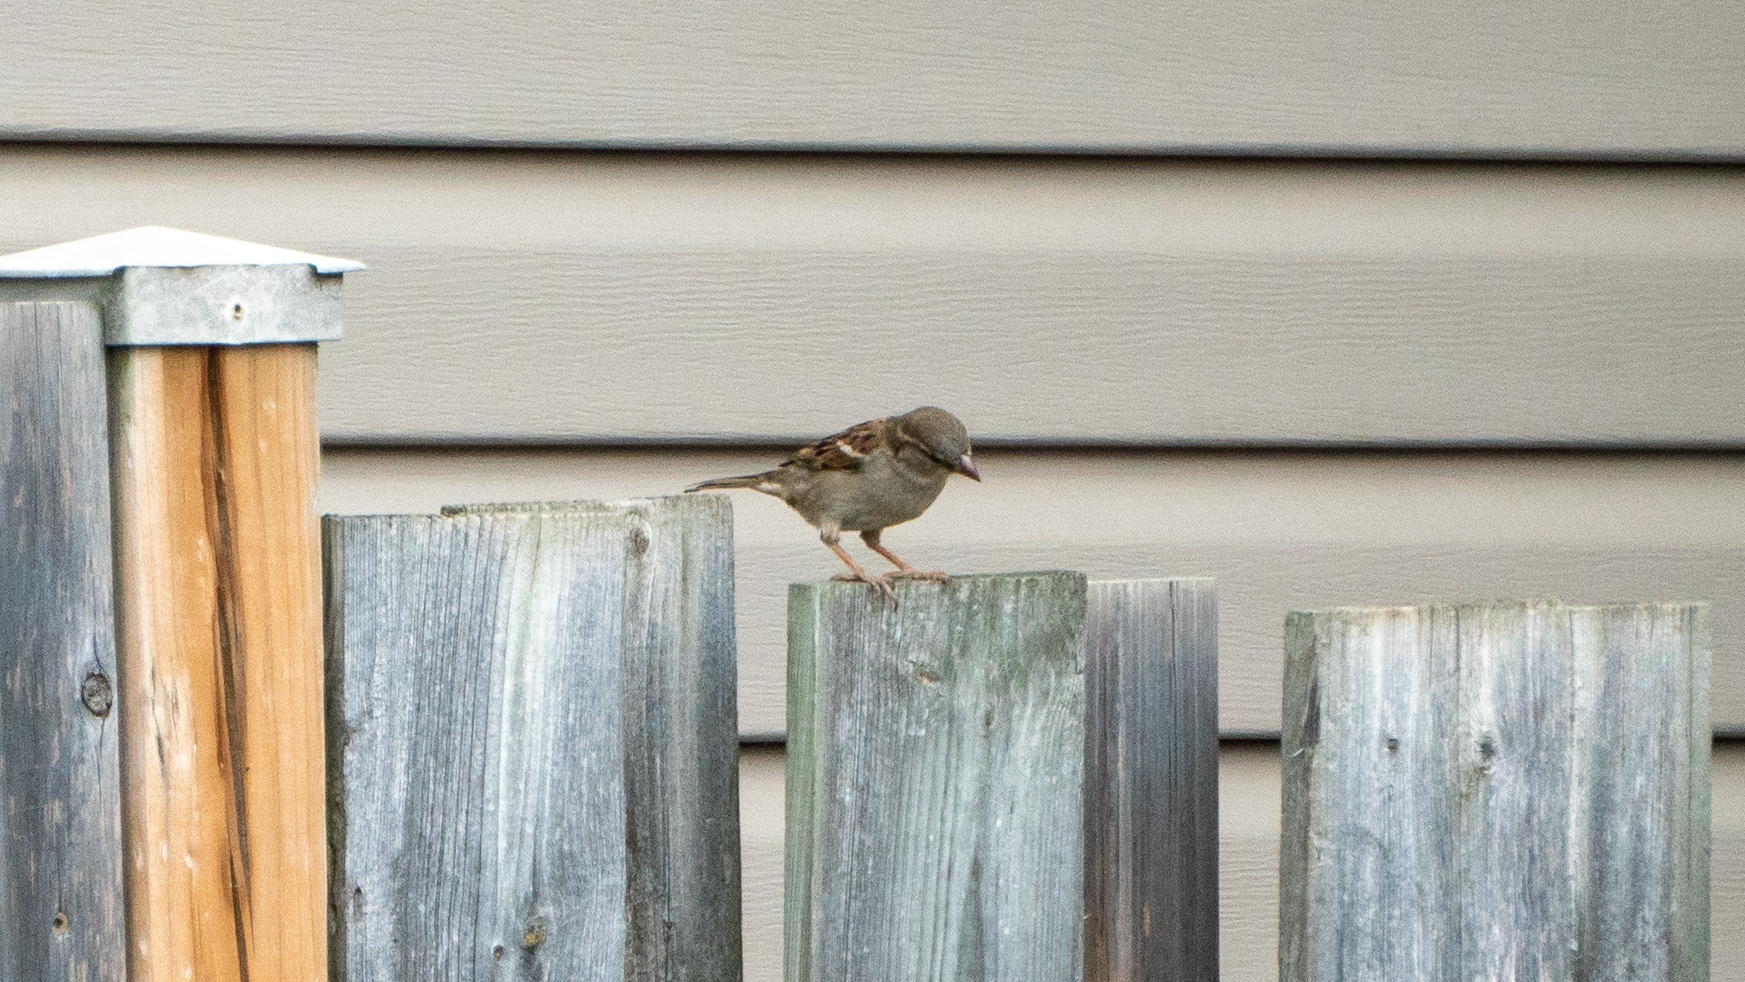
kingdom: Animalia
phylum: Chordata
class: Aves
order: Passeriformes
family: Passeridae
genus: Passer
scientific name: Passer domesticus
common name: House sparrow
